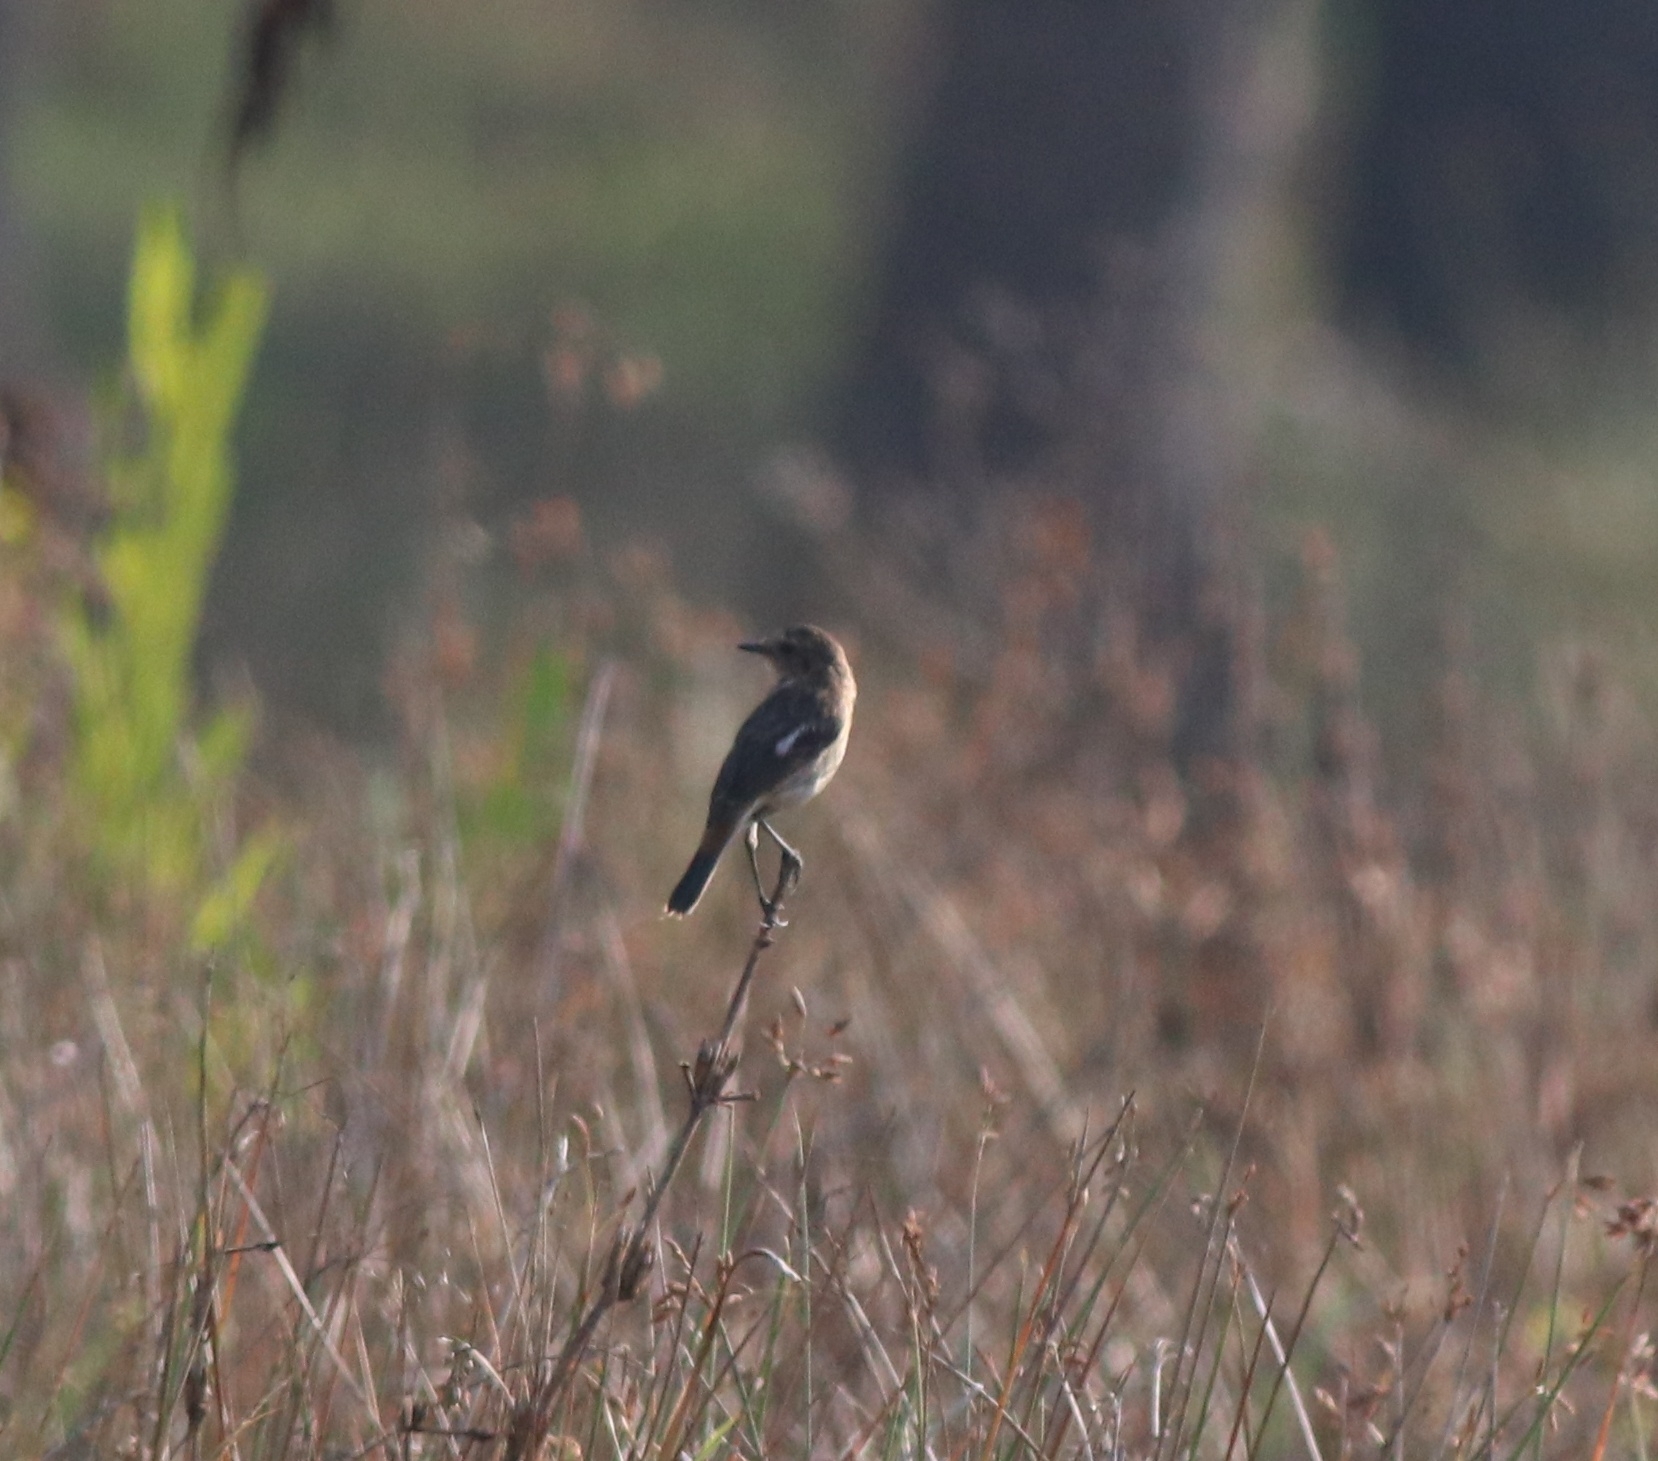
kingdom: Animalia
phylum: Chordata
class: Aves
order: Passeriformes
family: Muscicapidae
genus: Saxicola
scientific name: Saxicola maurus
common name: Siberian stonechat
